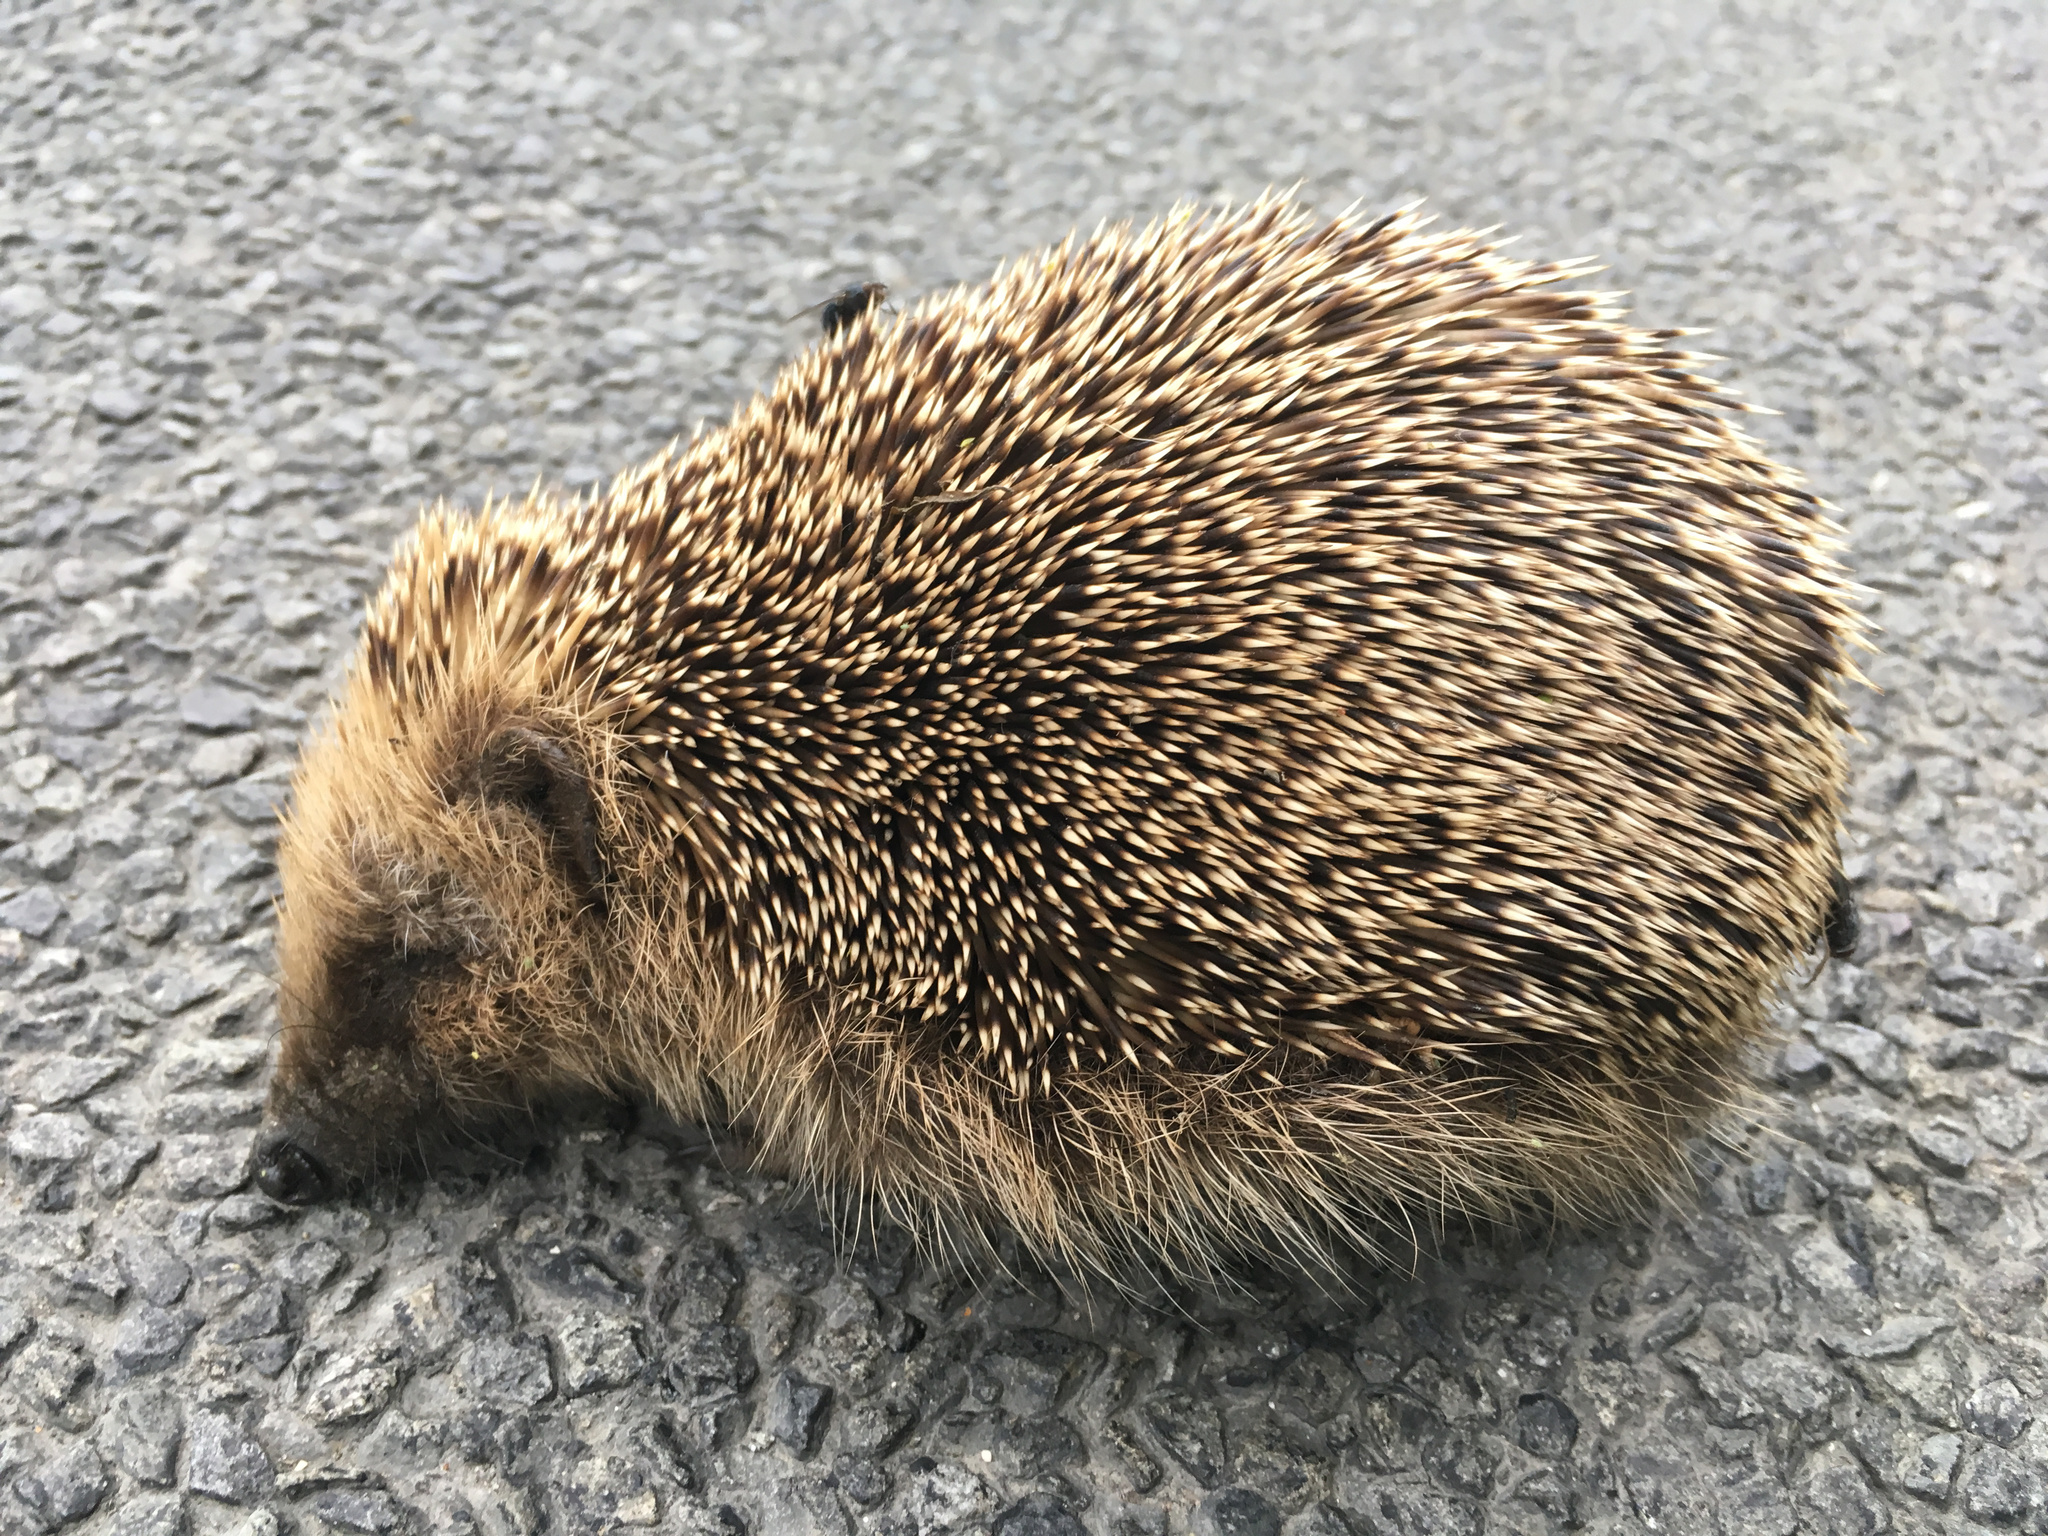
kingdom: Animalia
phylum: Chordata
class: Mammalia
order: Erinaceomorpha
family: Erinaceidae
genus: Erinaceus
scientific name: Erinaceus europaeus
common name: West european hedgehog
